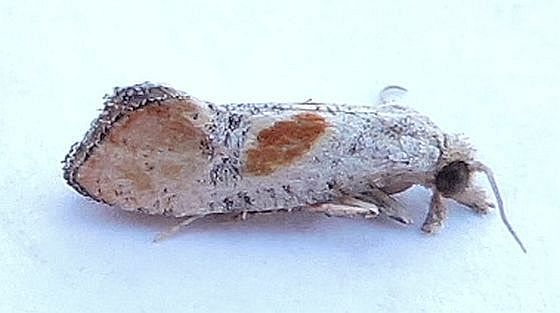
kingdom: Animalia
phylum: Arthropoda
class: Insecta
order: Lepidoptera
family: Tortricidae
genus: Conchylis
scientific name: Conchylis fulvotinctana
